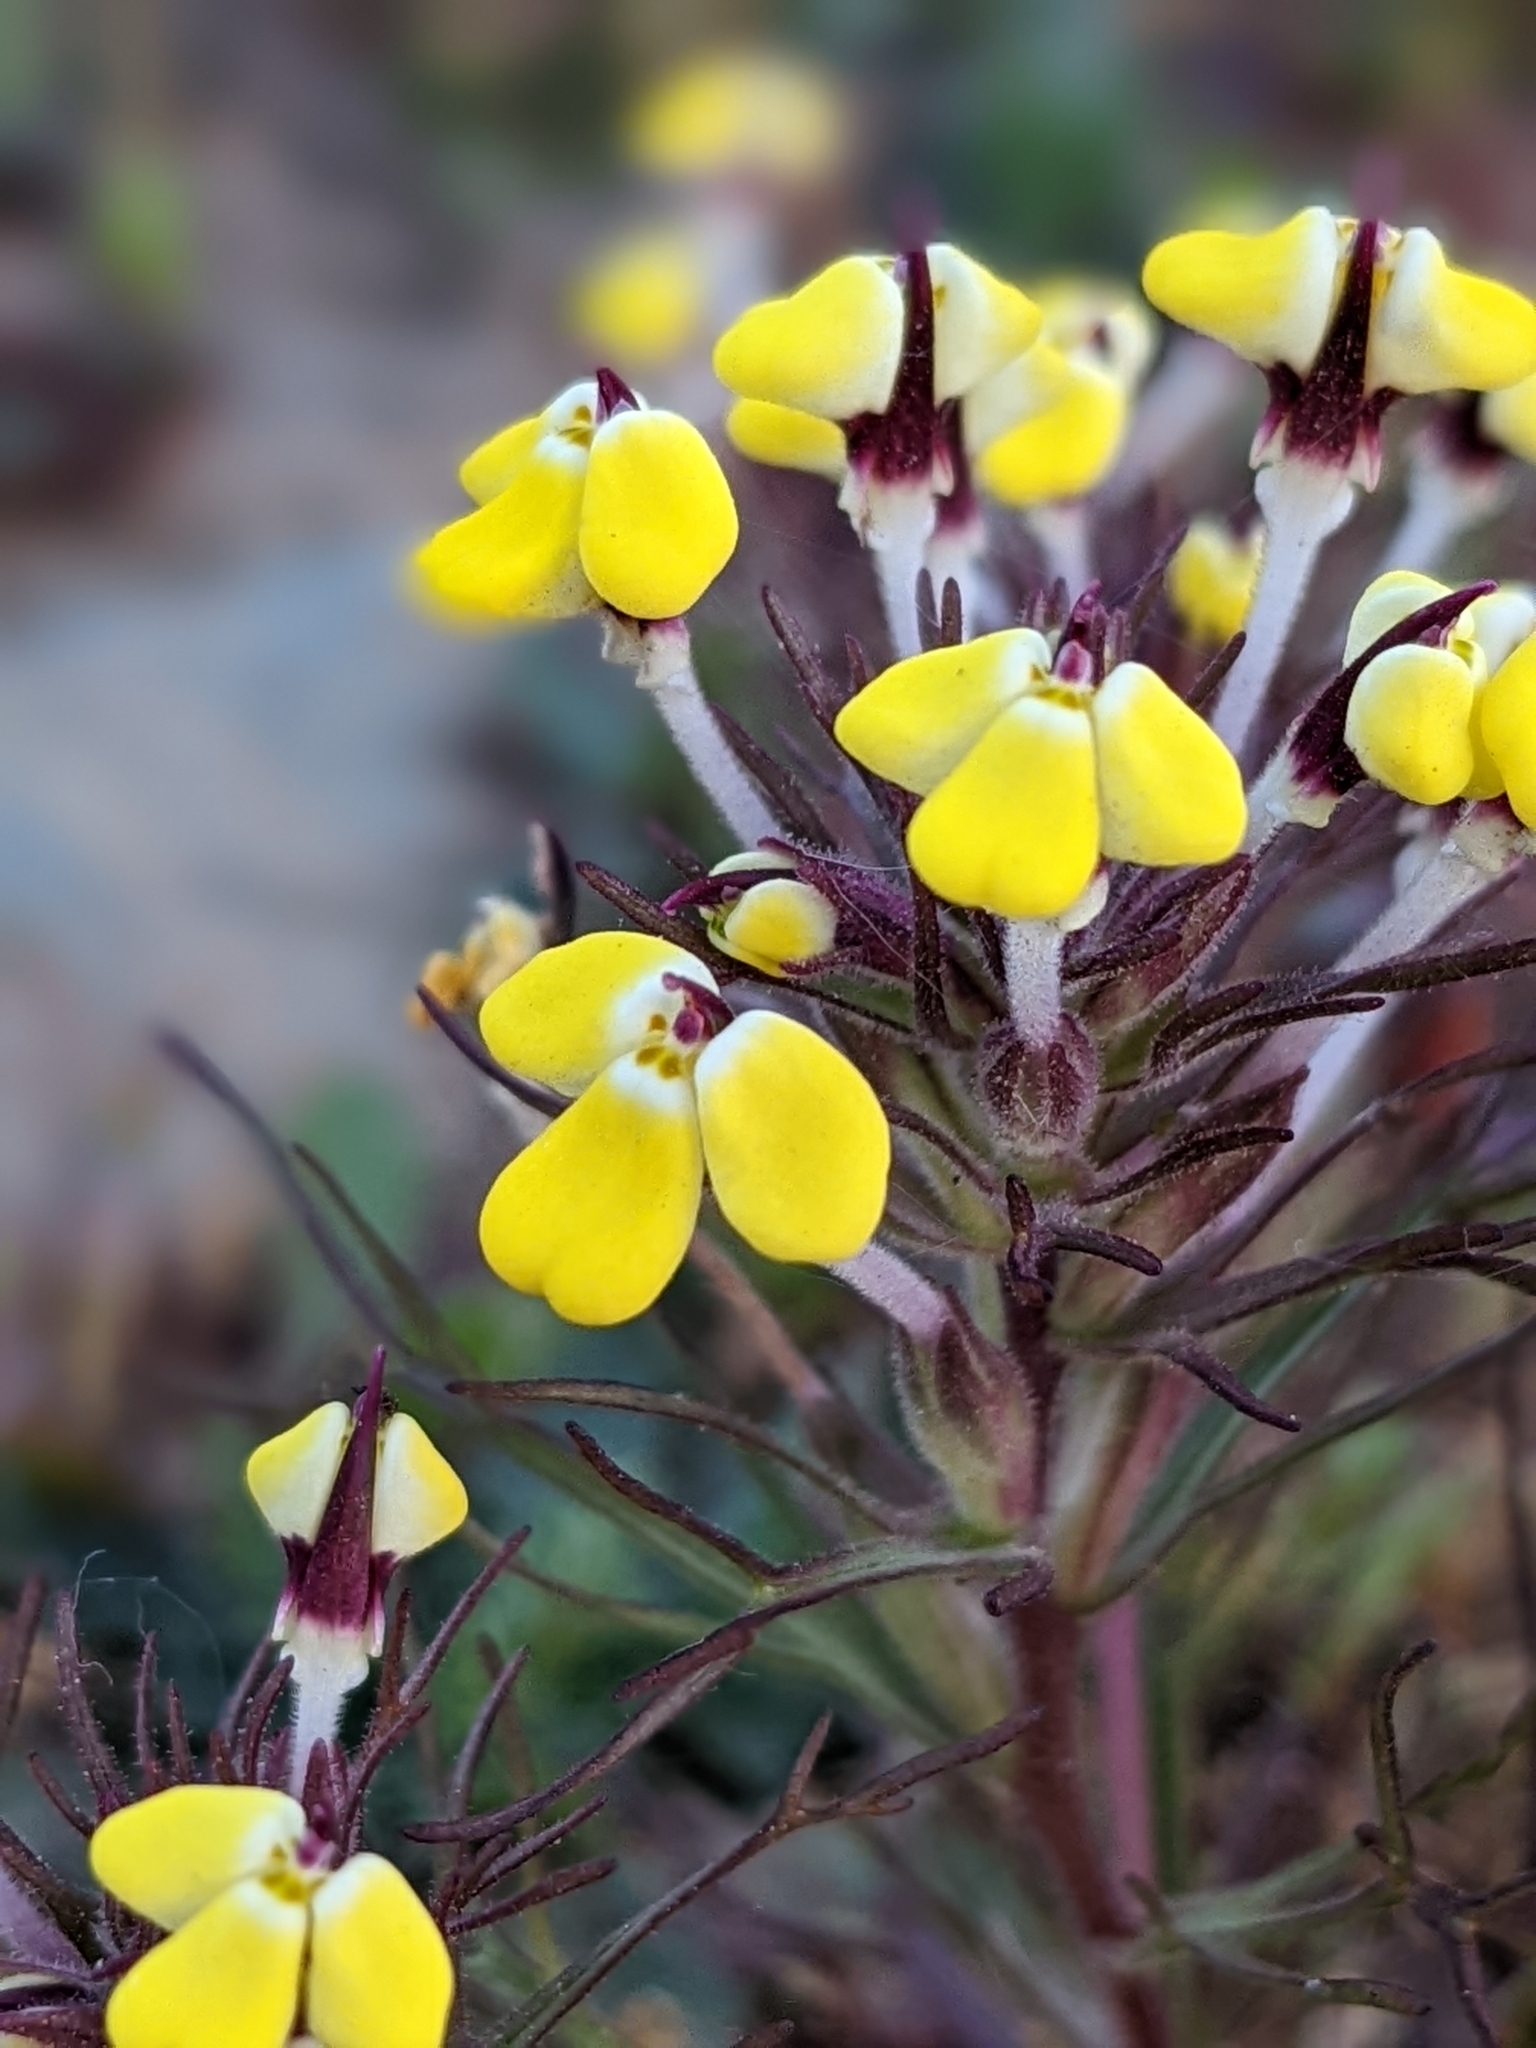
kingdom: Plantae
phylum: Tracheophyta
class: Magnoliopsida
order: Lamiales
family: Orobanchaceae
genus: Triphysaria
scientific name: Triphysaria eriantha
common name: Johnny-tuck
